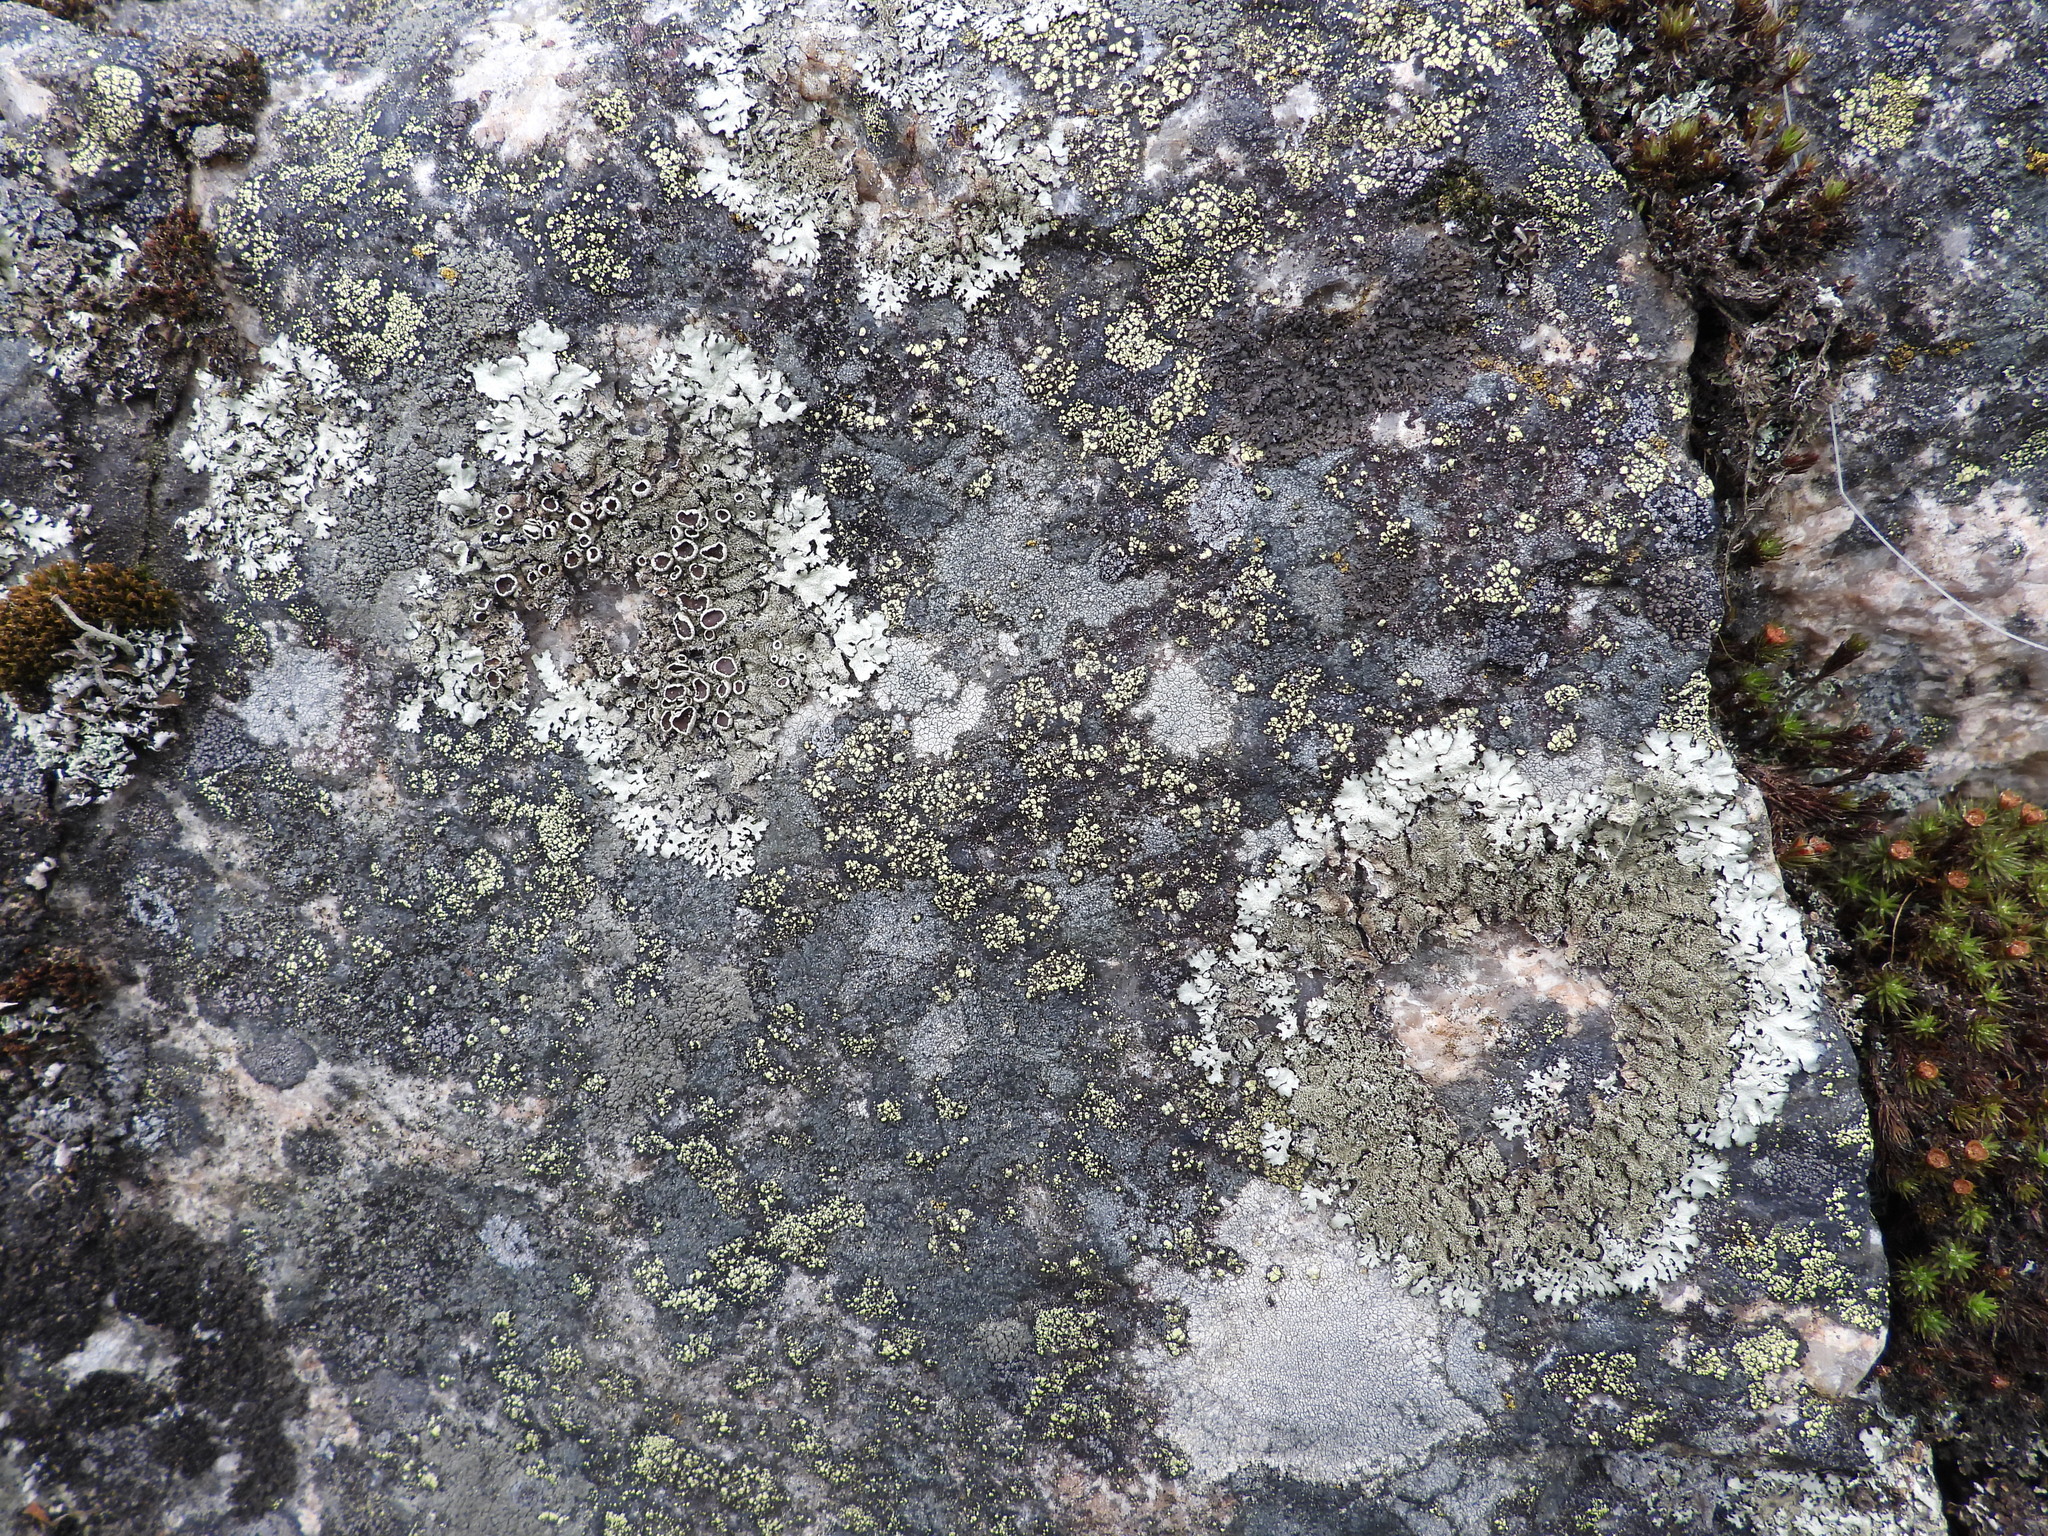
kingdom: Fungi
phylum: Ascomycota
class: Lecanoromycetes
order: Lecanorales
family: Parmeliaceae
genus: Xanthoparmelia
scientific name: Xanthoparmelia conspersa
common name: Peppered rock shield
